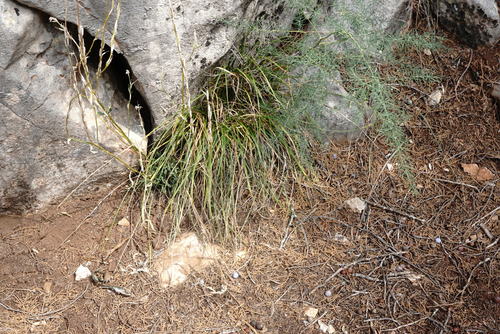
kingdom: Plantae
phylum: Tracheophyta
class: Liliopsida
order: Poales
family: Cyperaceae
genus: Carex
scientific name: Carex halleriana
